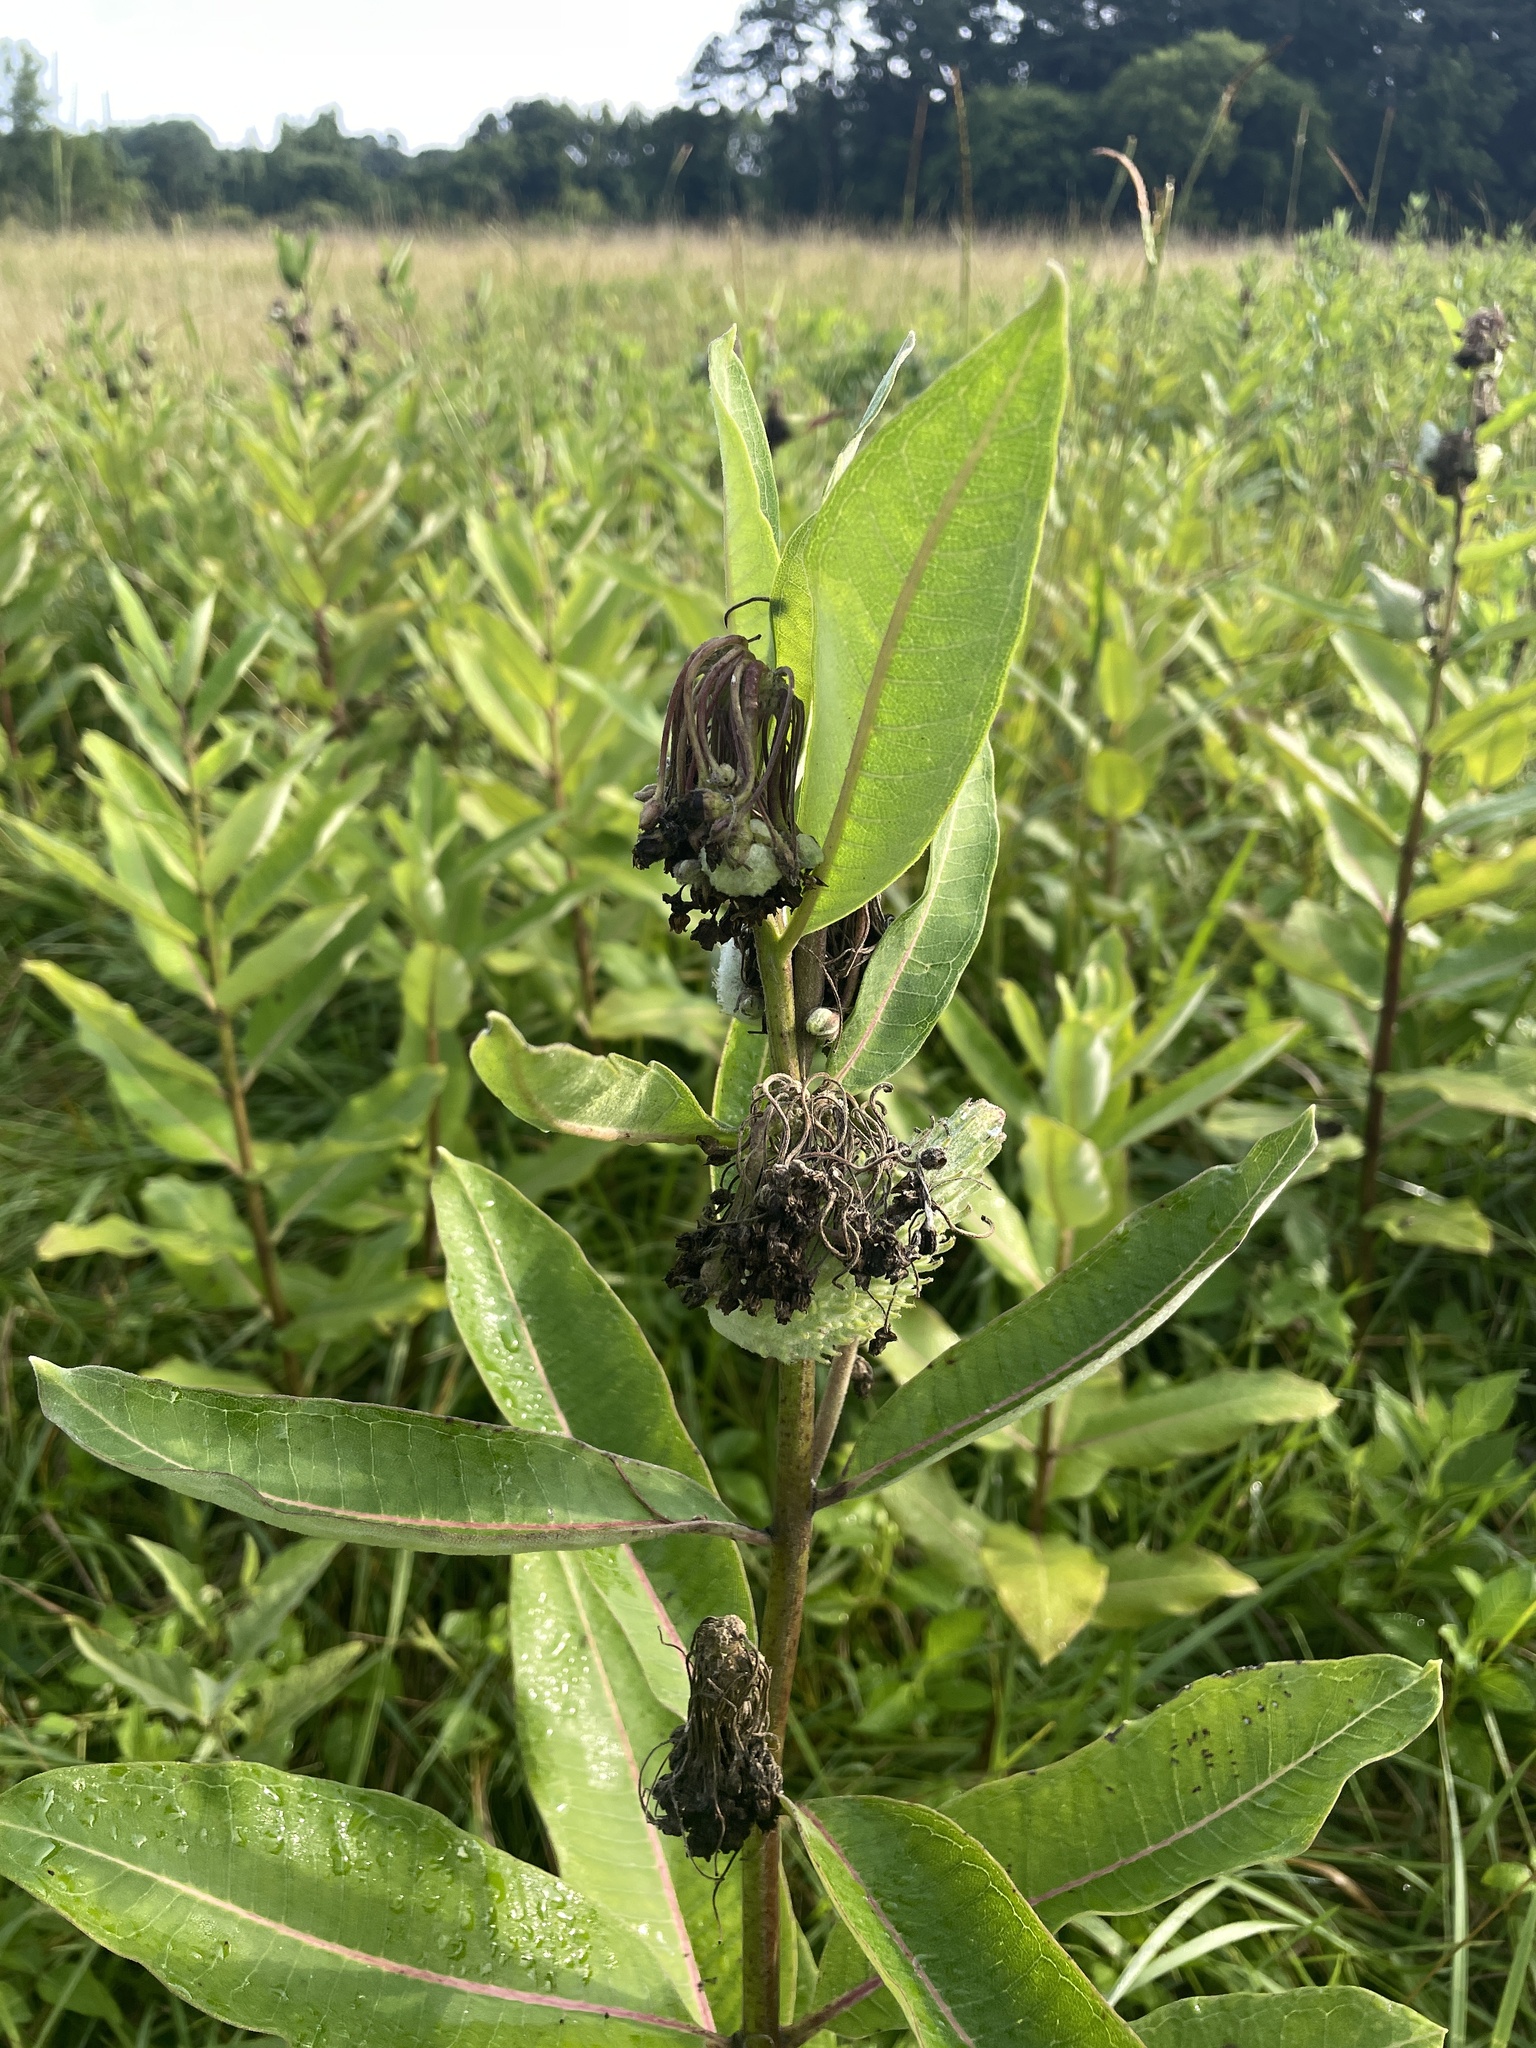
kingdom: Plantae
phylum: Tracheophyta
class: Magnoliopsida
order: Gentianales
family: Apocynaceae
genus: Asclepias
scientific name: Asclepias syriaca
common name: Common milkweed
